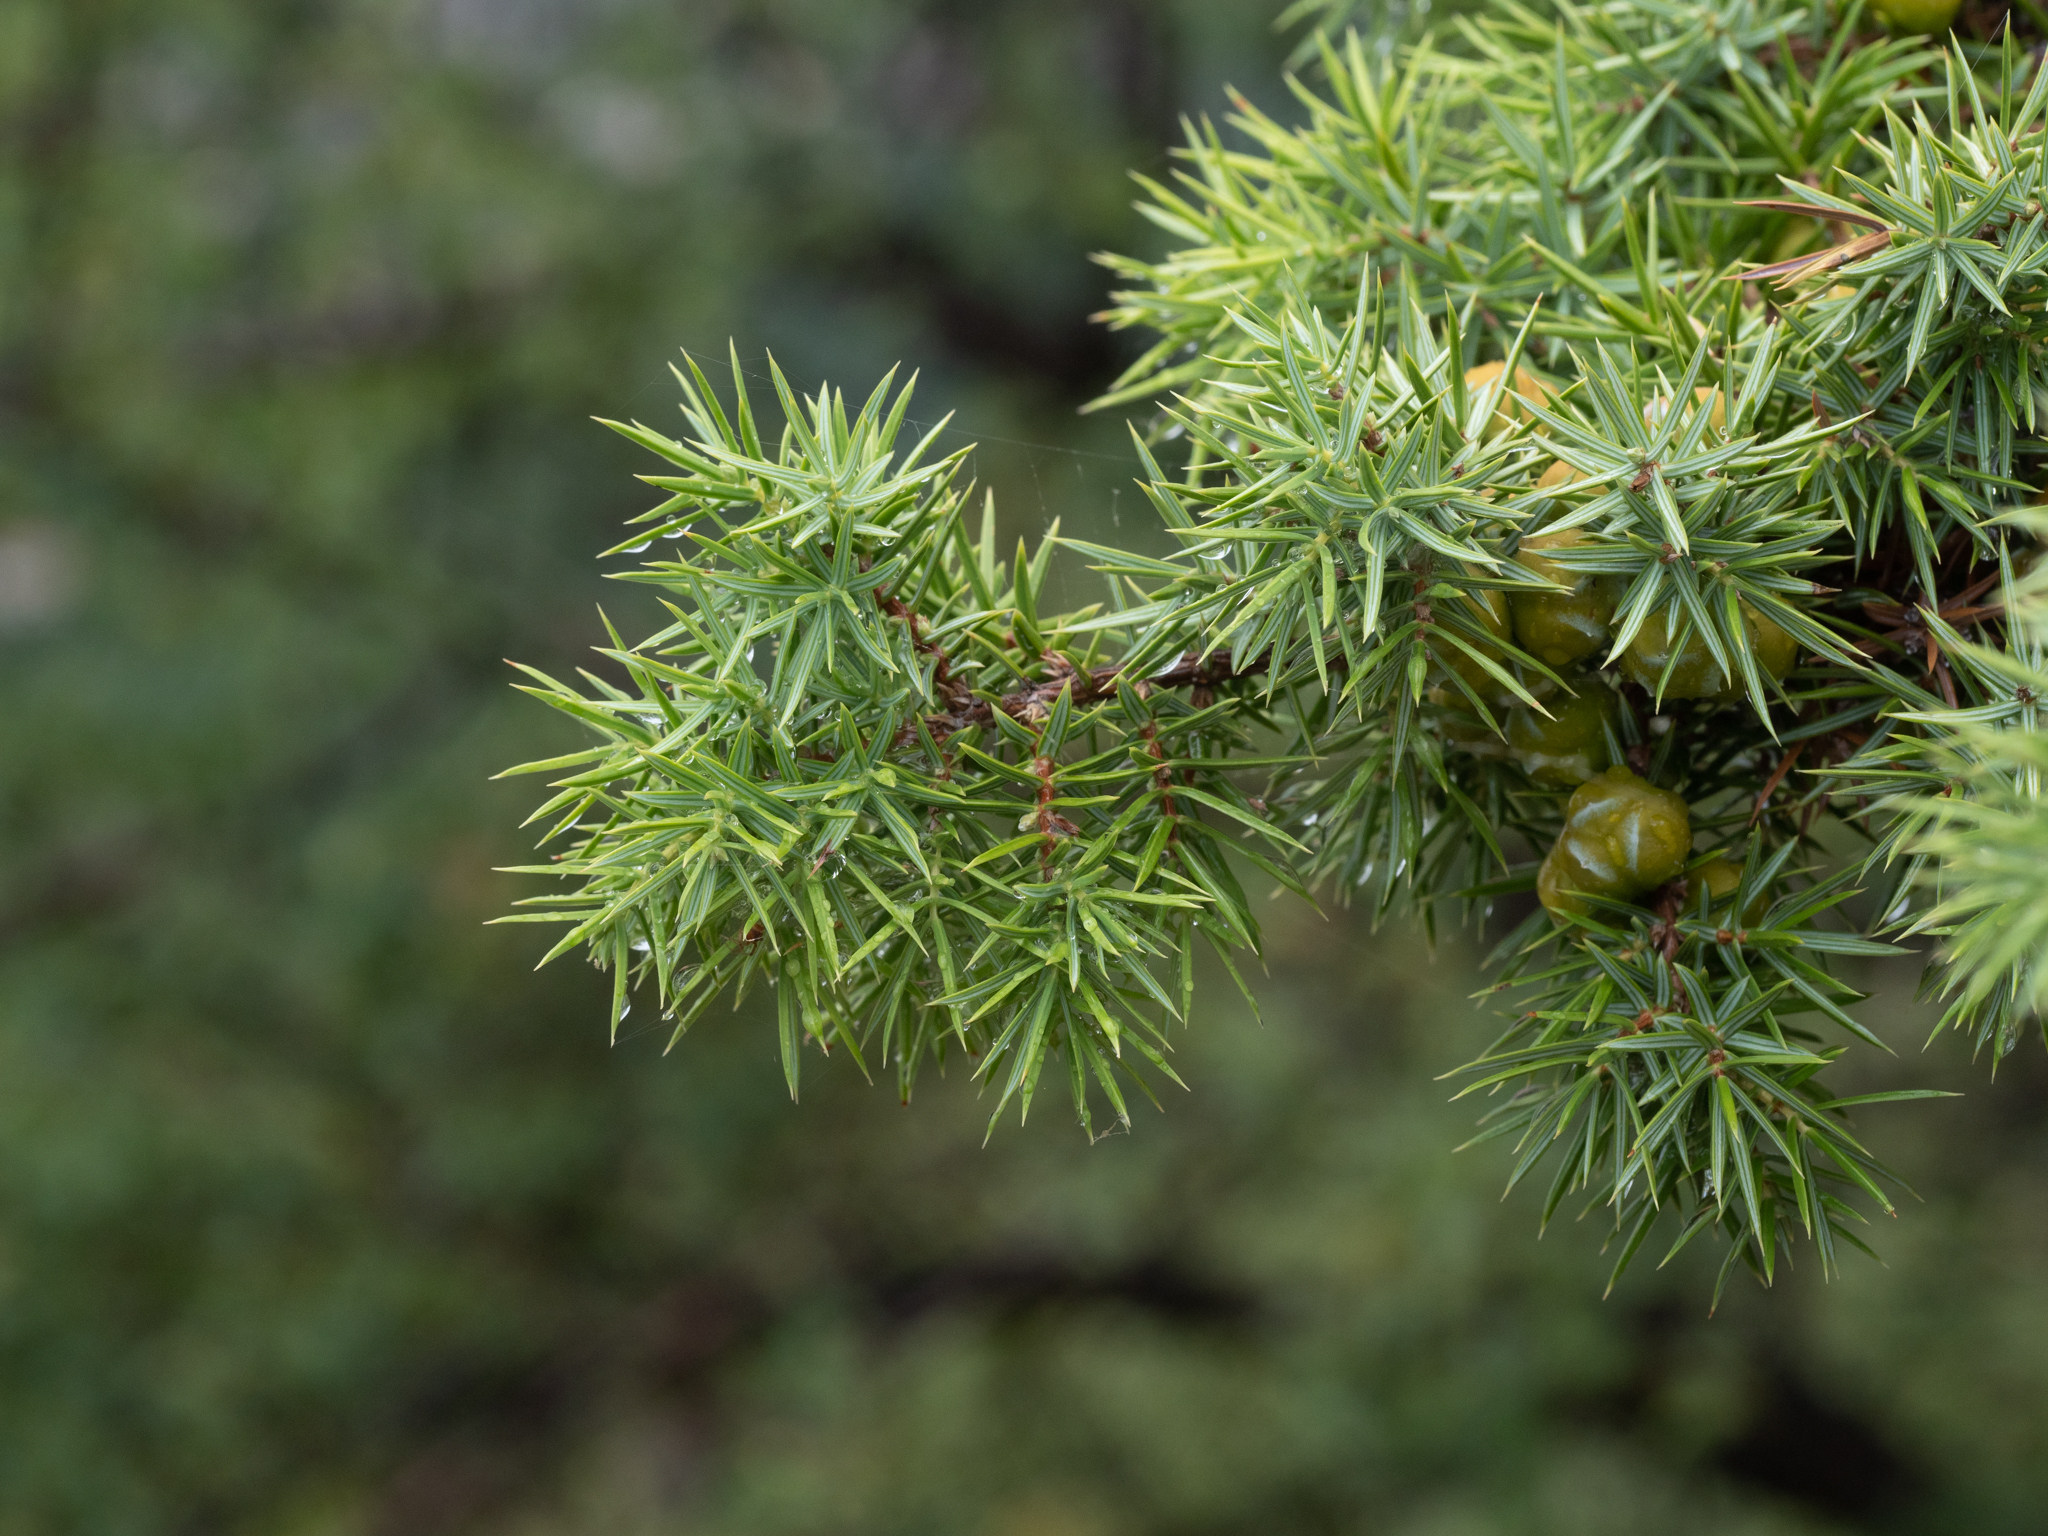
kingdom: Plantae
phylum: Tracheophyta
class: Pinopsida
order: Pinales
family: Cupressaceae
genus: Juniperus
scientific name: Juniperus oxycedrus
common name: Prickly juniper
